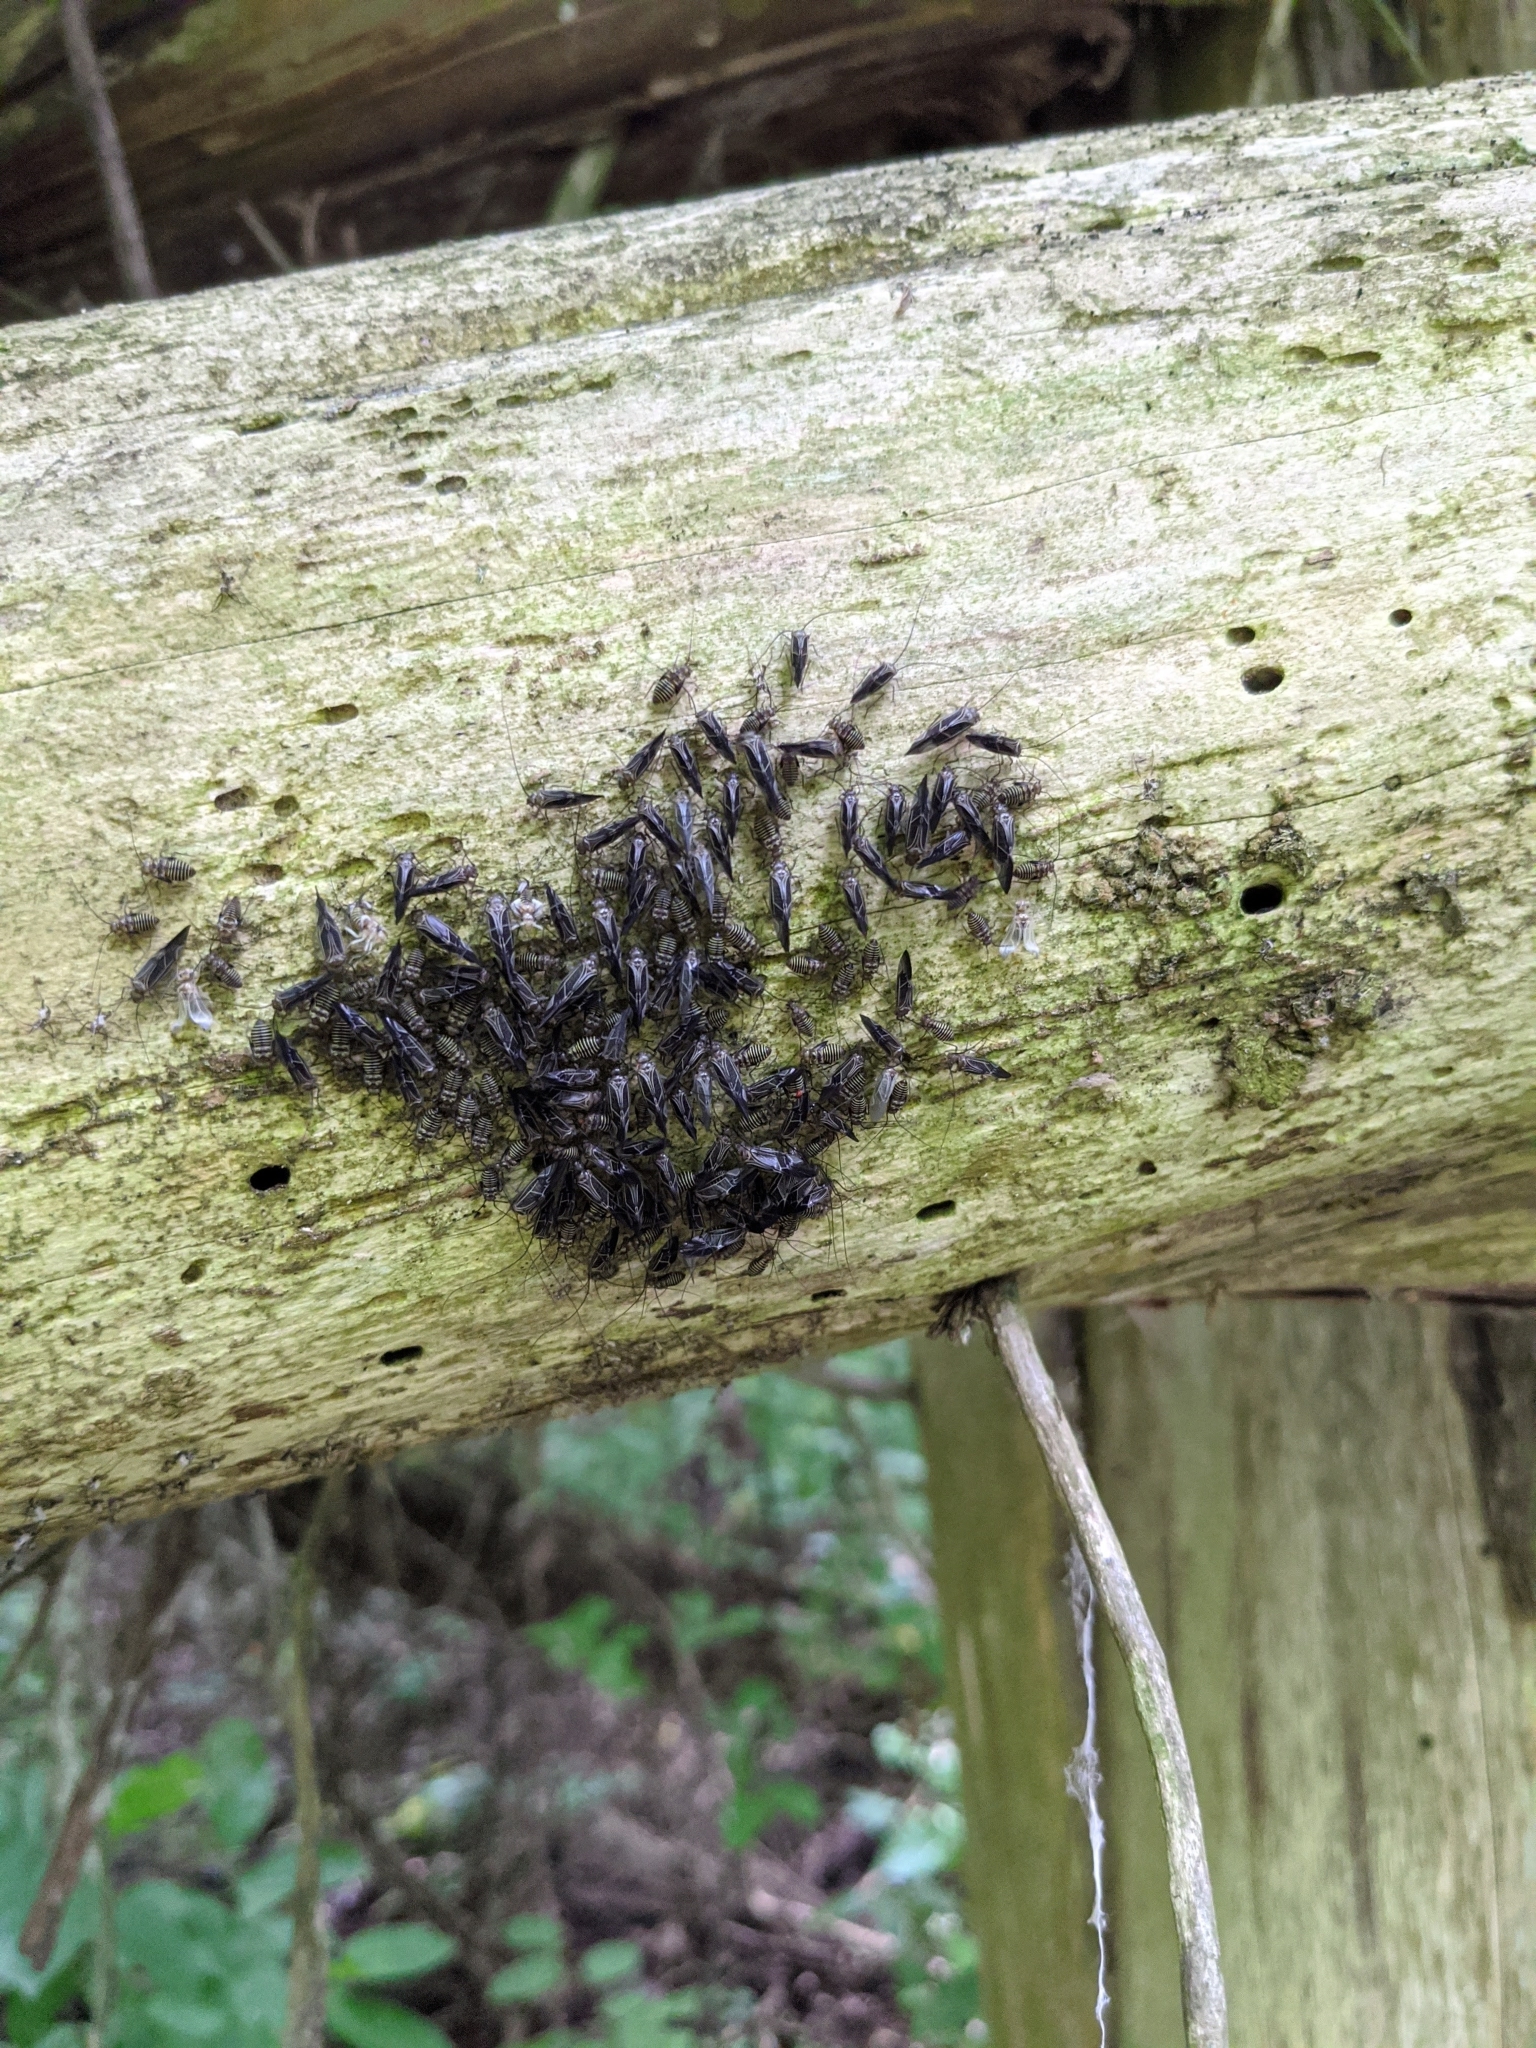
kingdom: Animalia
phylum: Arthropoda
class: Insecta
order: Psocodea
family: Psocidae
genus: Cerastipsocus
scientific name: Cerastipsocus venosus
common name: Tree cattle
